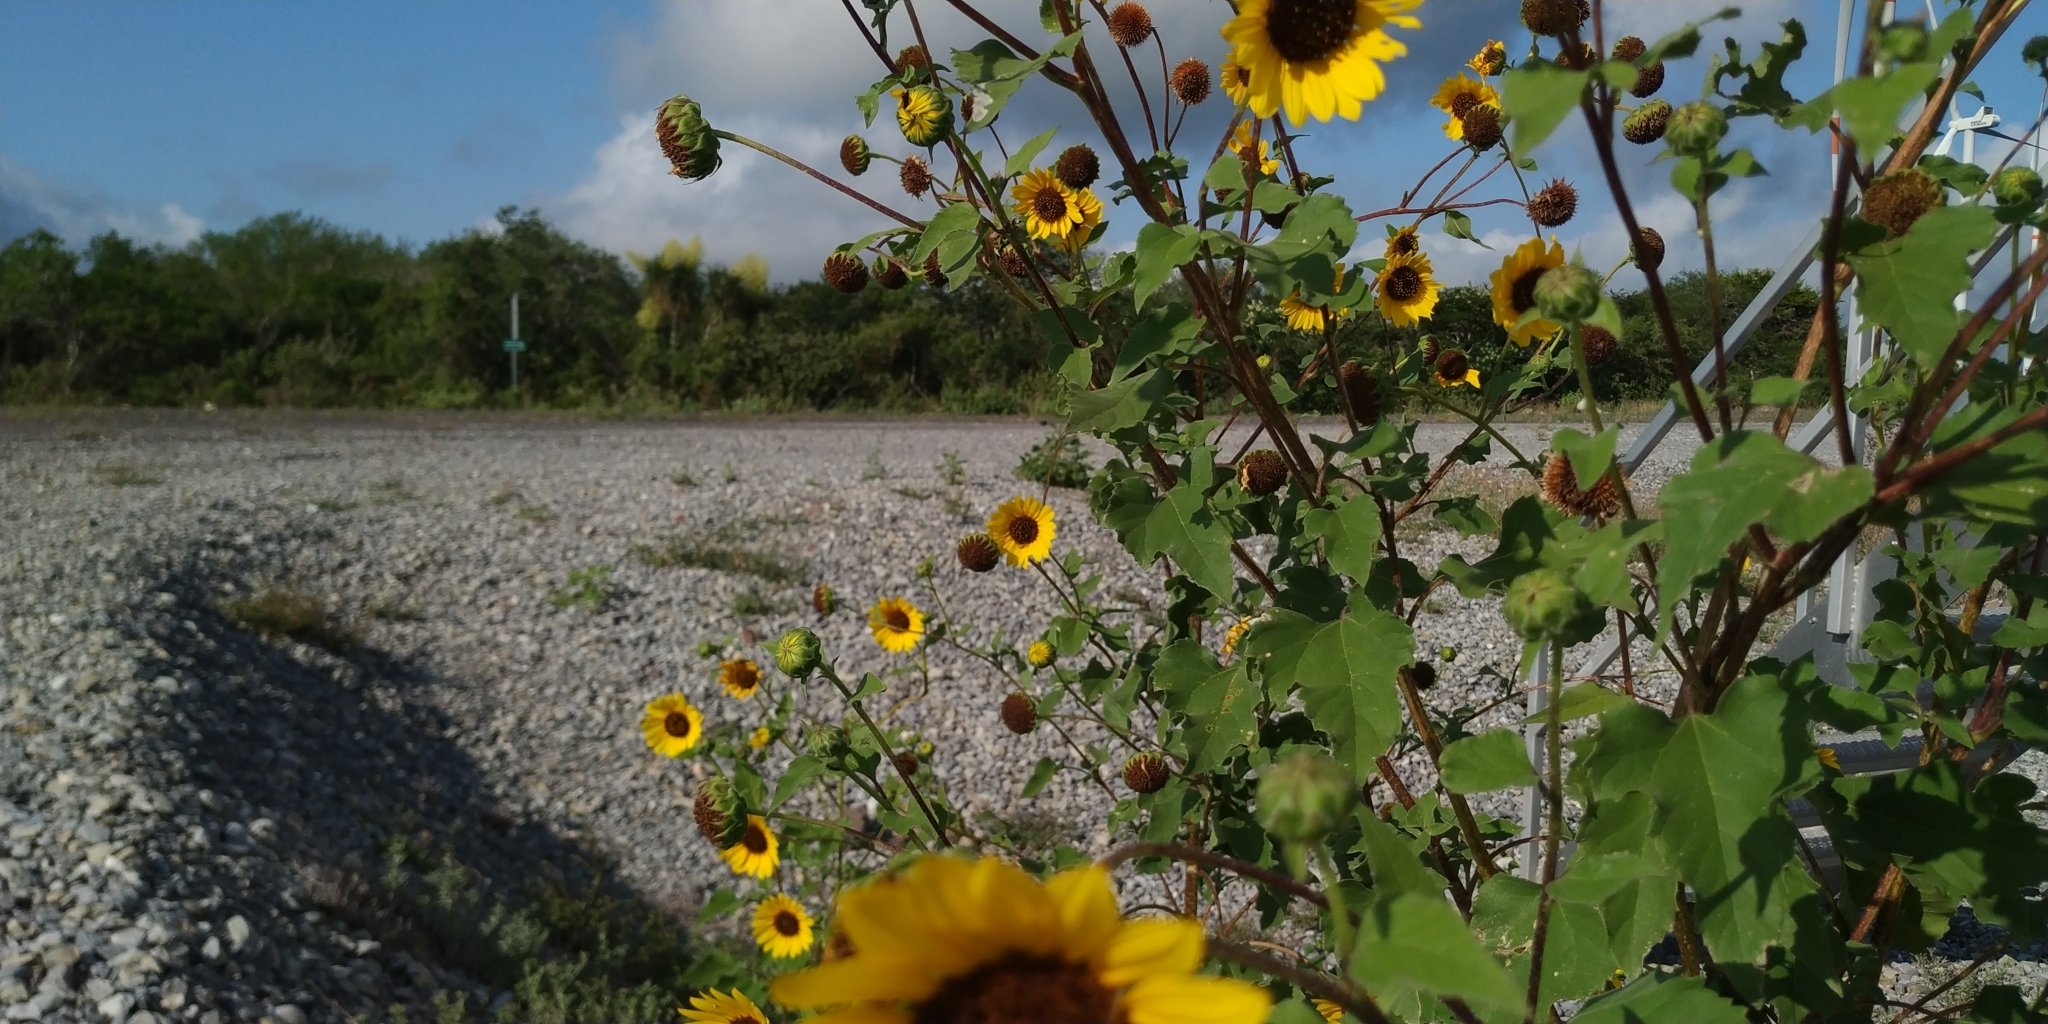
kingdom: Plantae
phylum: Tracheophyta
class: Magnoliopsida
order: Asterales
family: Asteraceae
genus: Helianthus
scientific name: Helianthus annuus
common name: Sunflower
